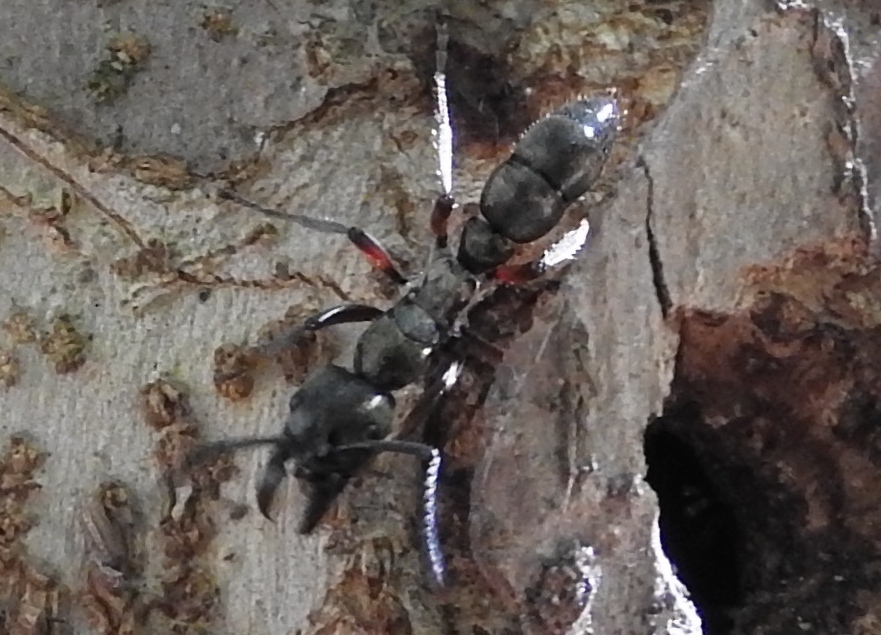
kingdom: Animalia
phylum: Arthropoda
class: Insecta
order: Hymenoptera
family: Formicidae
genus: Pachycondyla
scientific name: Pachycondyla villosa
